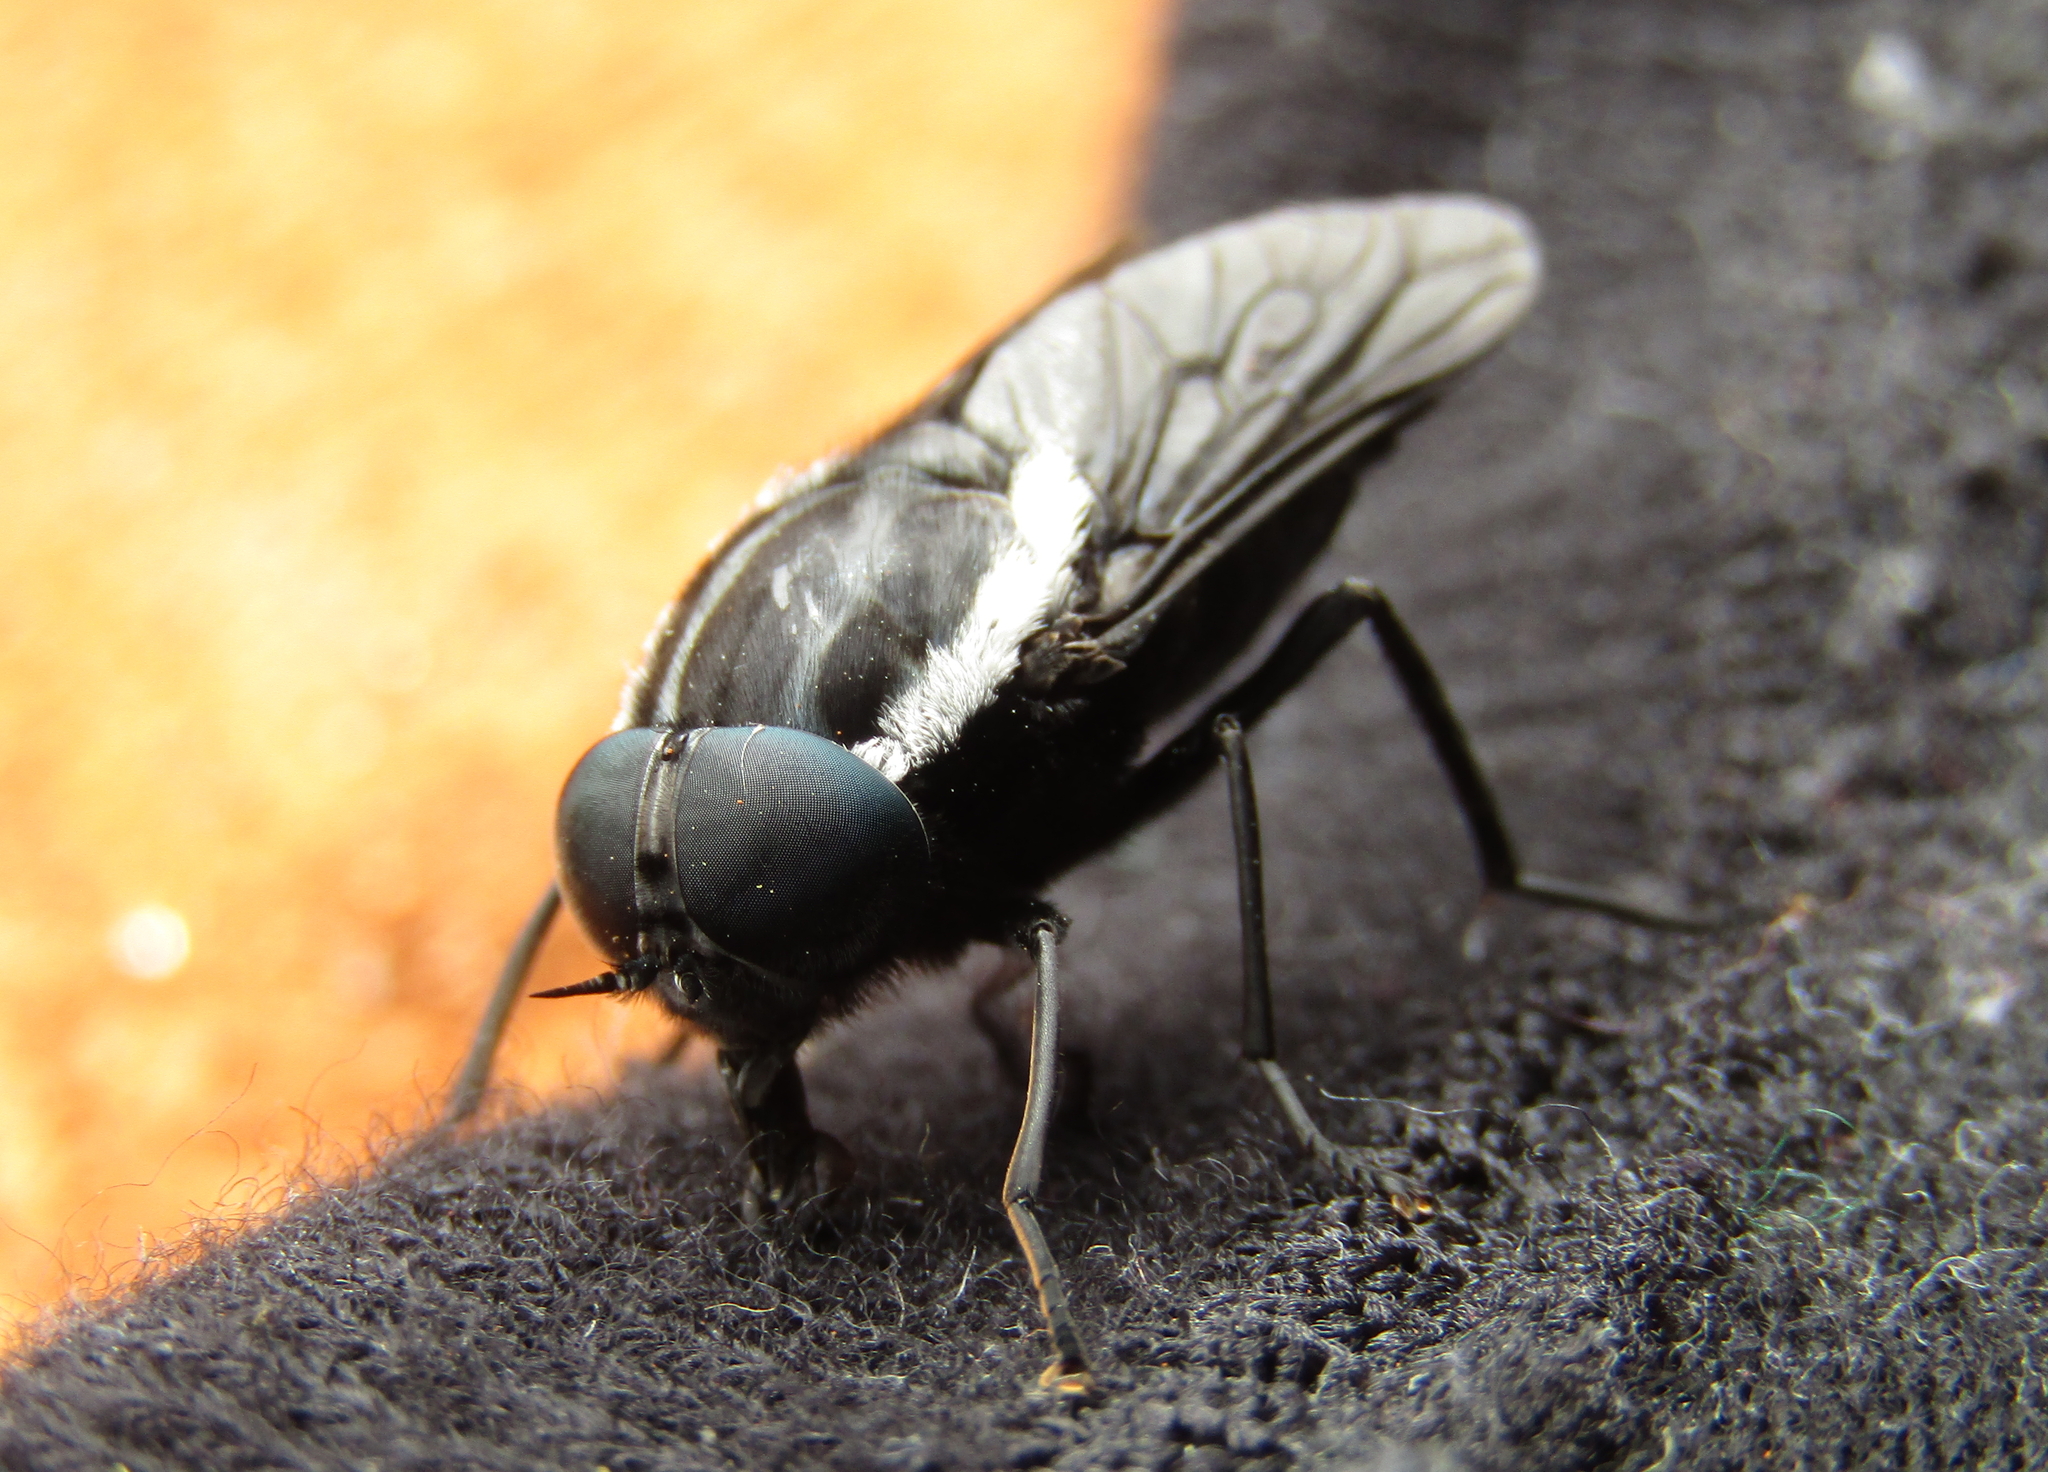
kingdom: Animalia
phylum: Arthropoda
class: Insecta
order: Diptera
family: Tabanidae
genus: Triclista
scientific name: Triclista guttata
